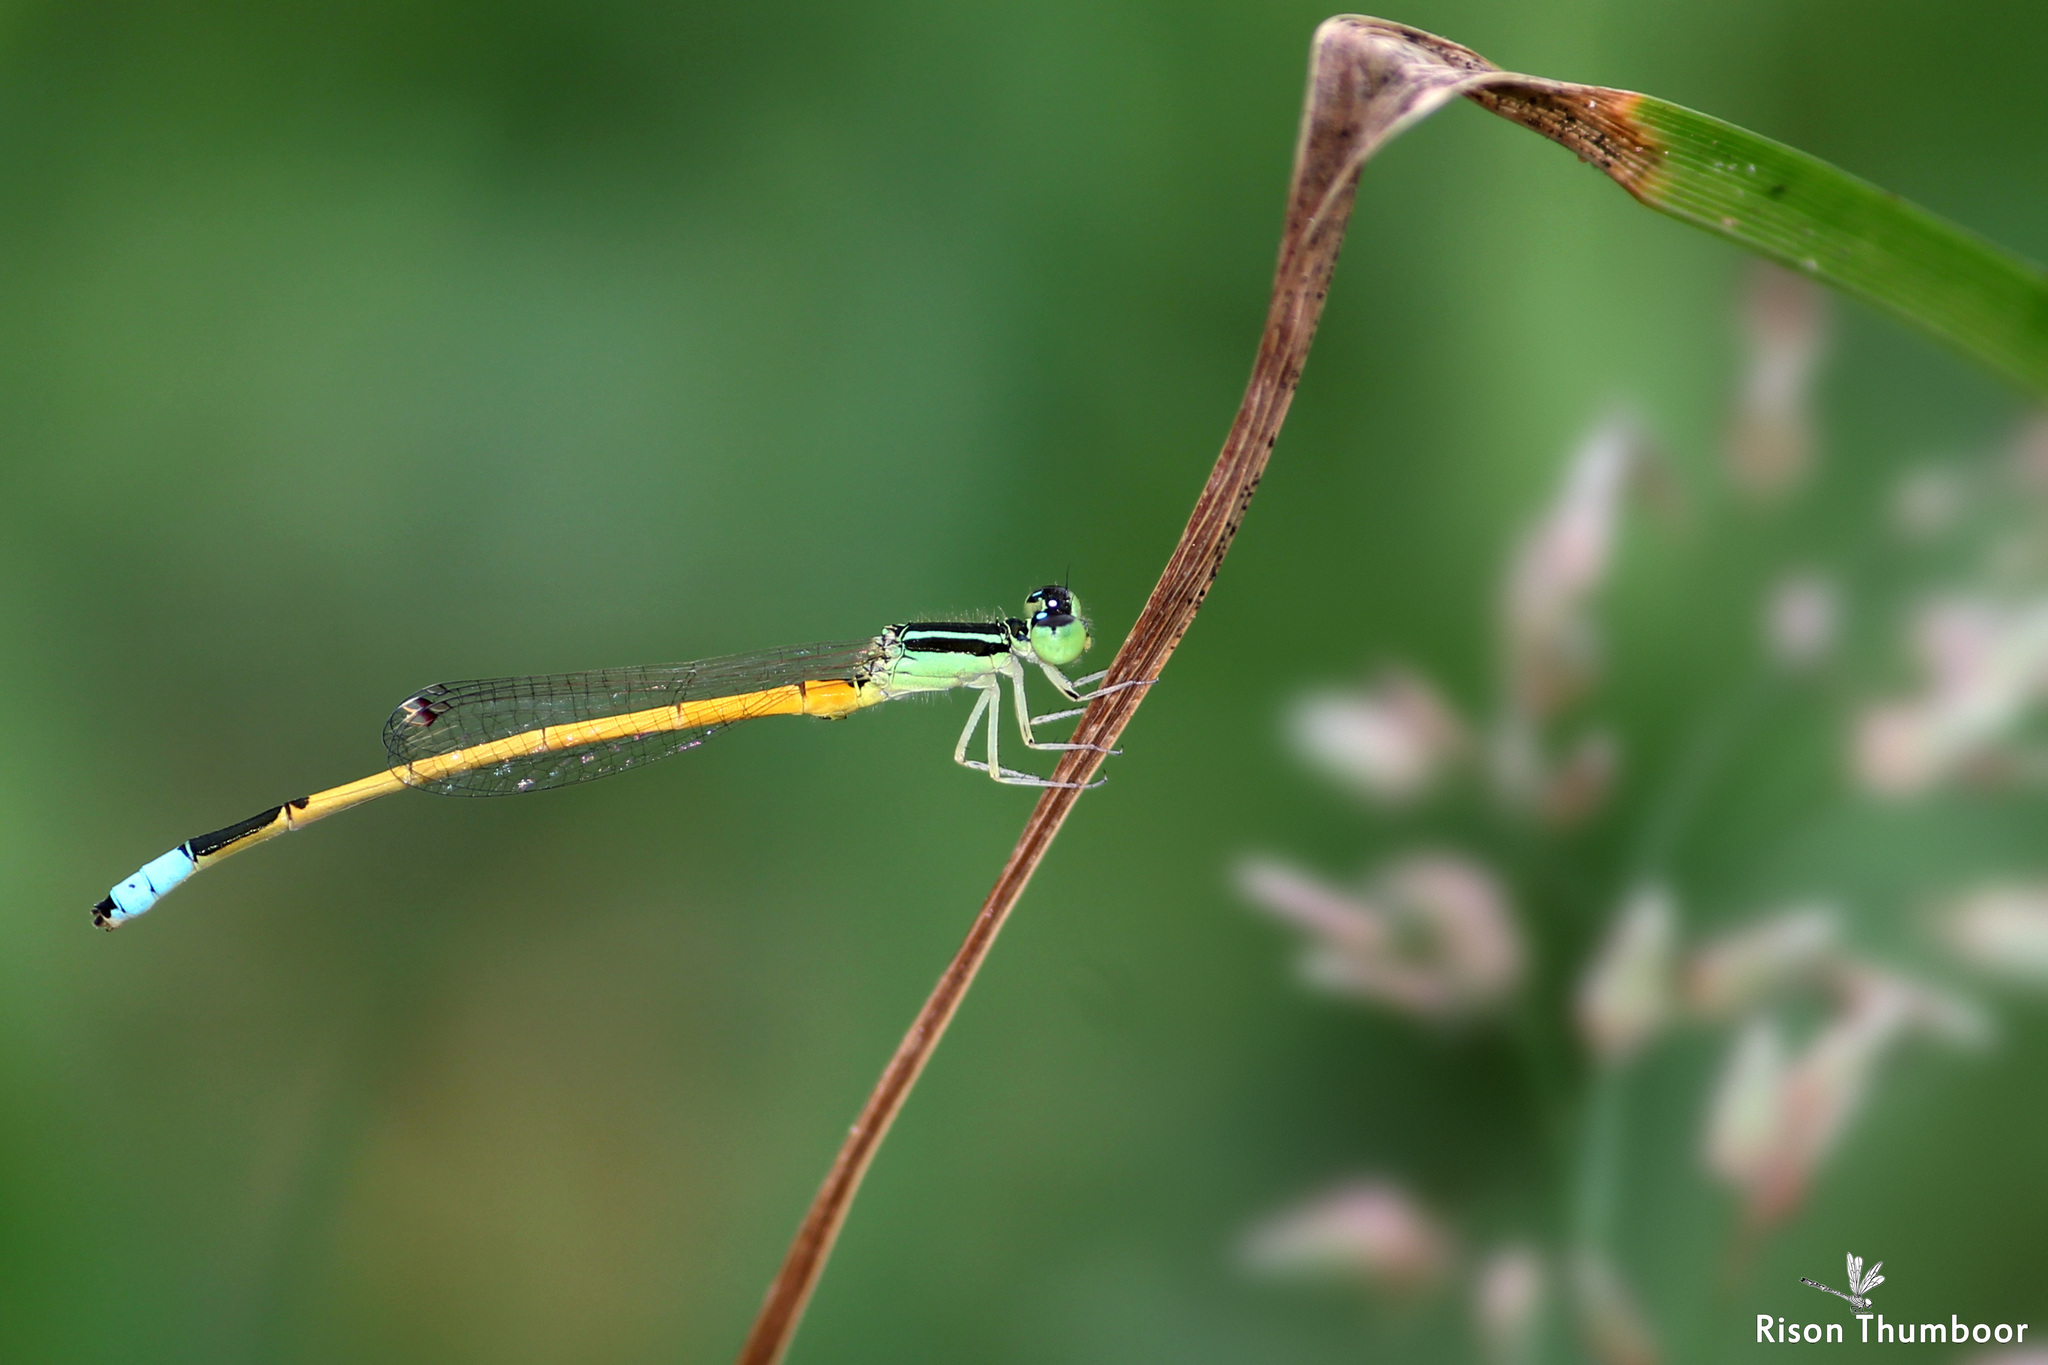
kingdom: Animalia
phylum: Arthropoda
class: Insecta
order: Odonata
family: Coenagrionidae
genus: Ischnura
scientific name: Ischnura rubilio
